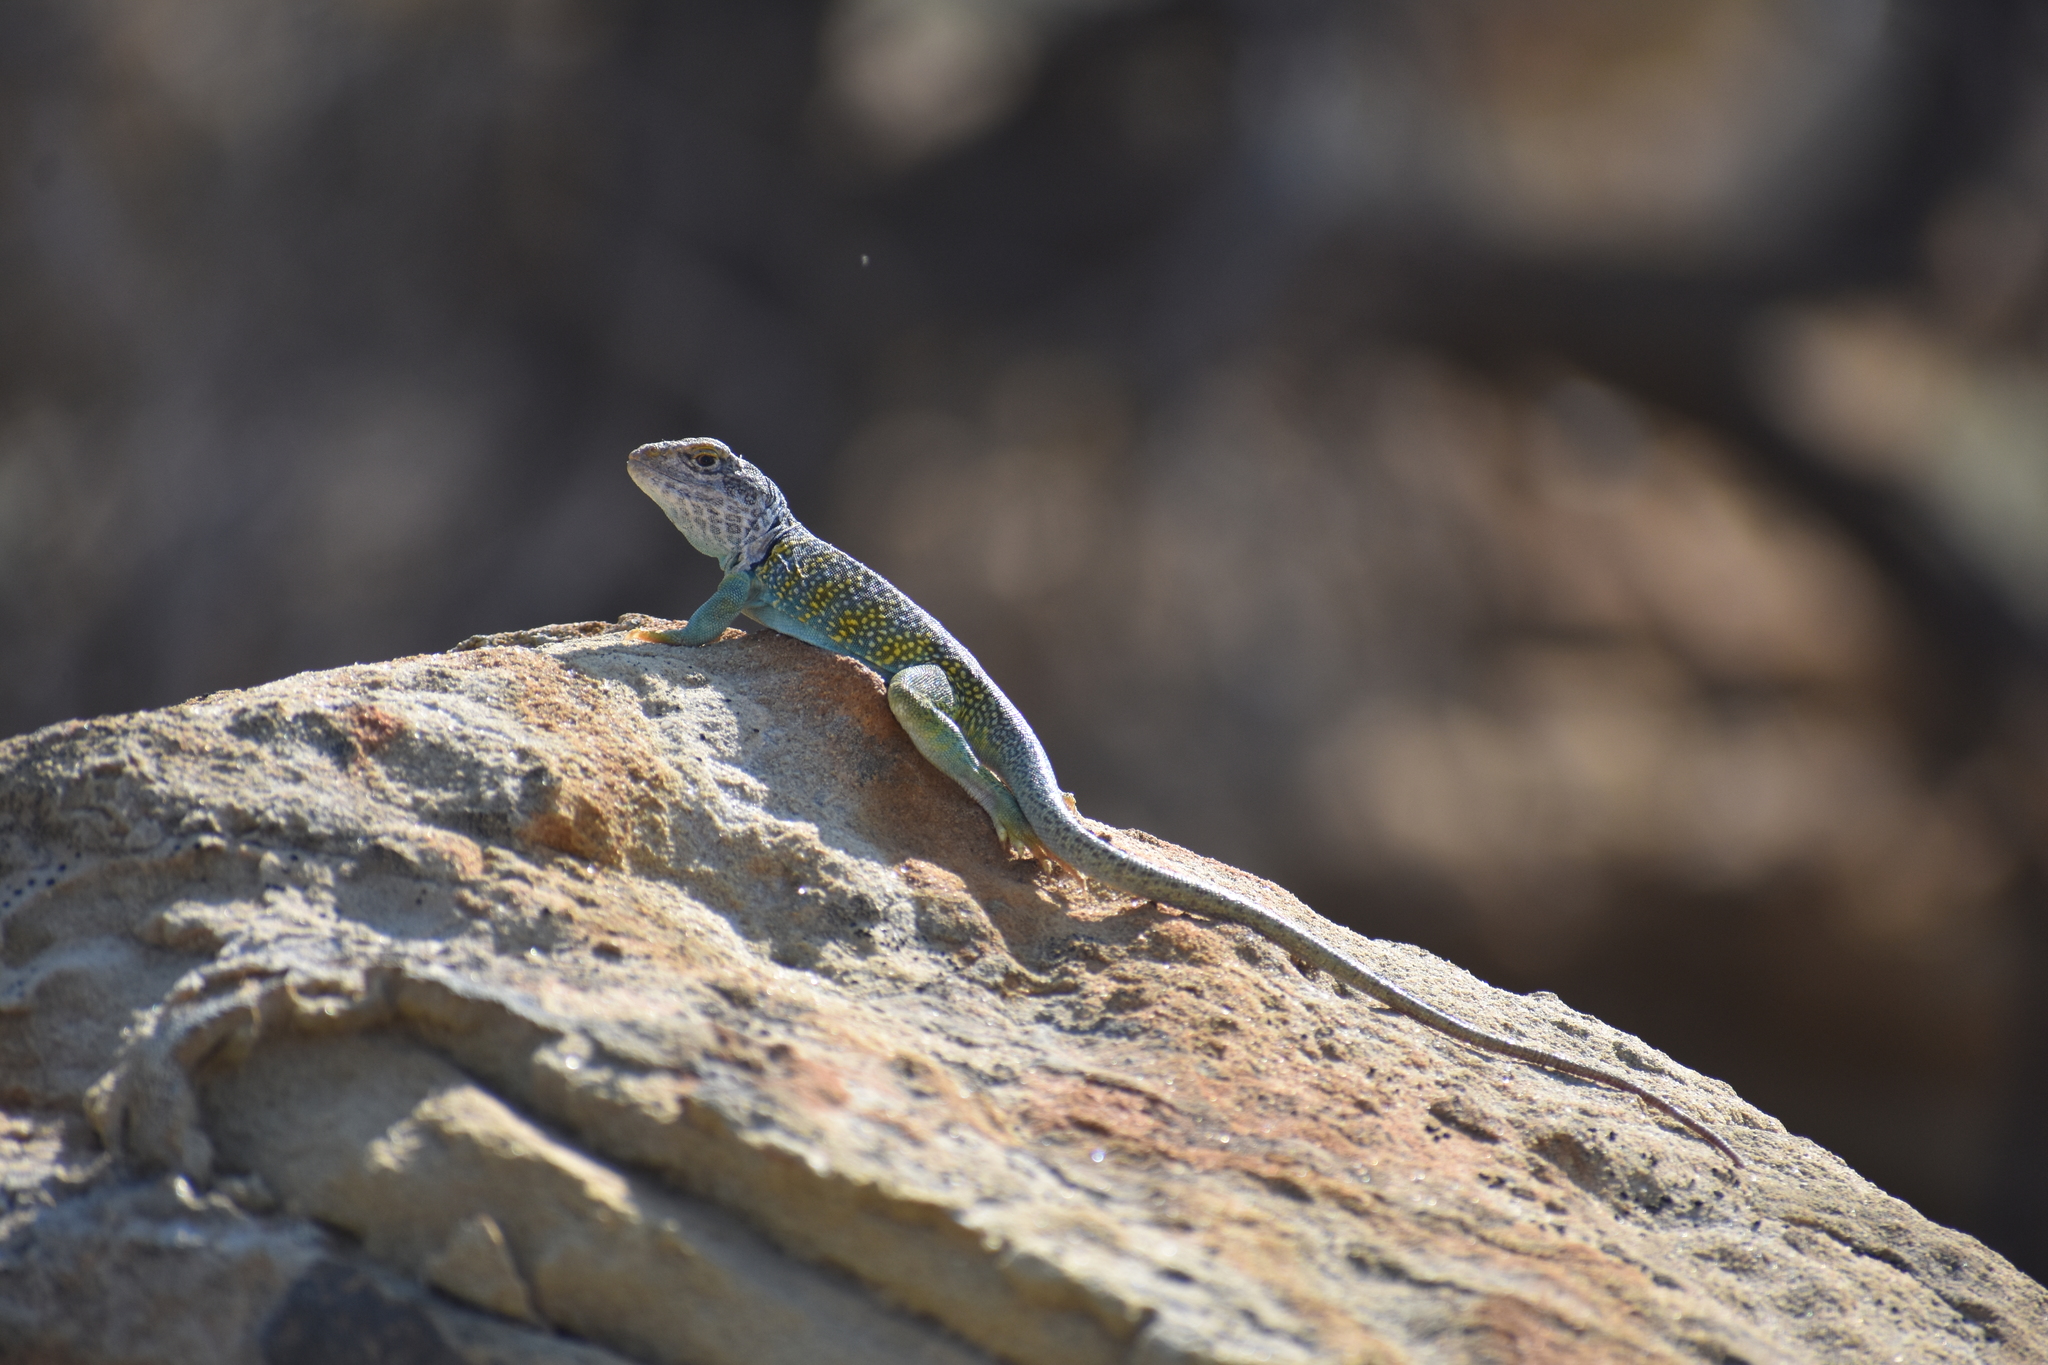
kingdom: Animalia
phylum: Chordata
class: Squamata
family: Crotaphytidae
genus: Crotaphytus
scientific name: Crotaphytus collaris
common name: Collared lizard
